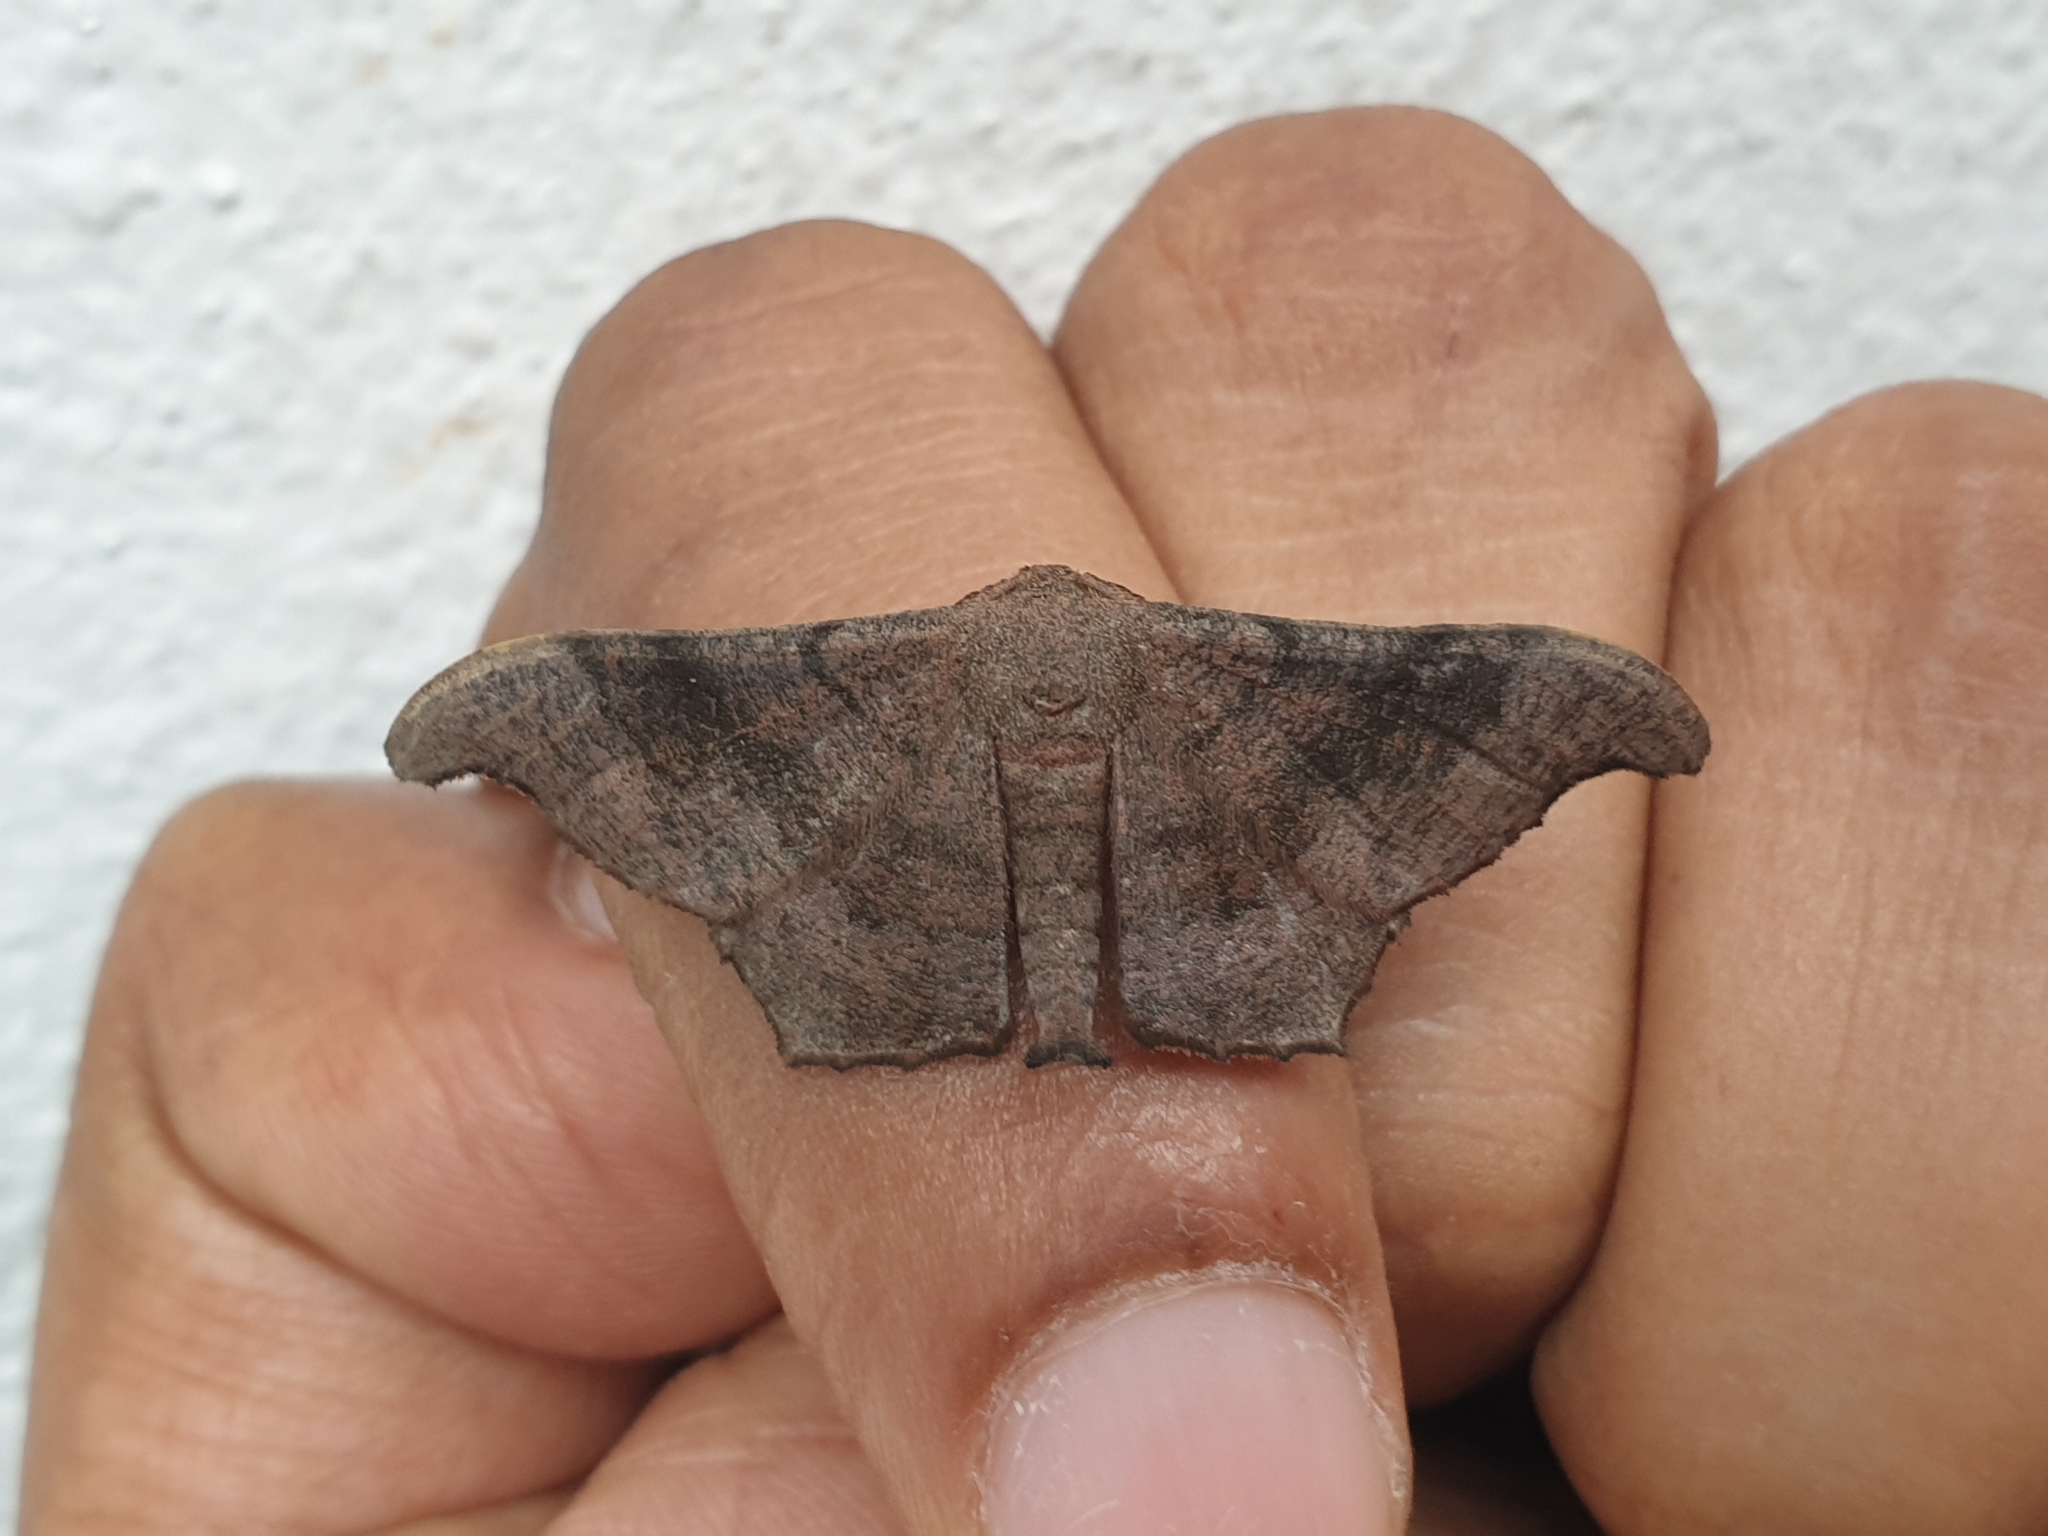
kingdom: Animalia
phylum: Arthropoda
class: Insecta
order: Lepidoptera
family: Geometridae
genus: Hyposidra
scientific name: Hyposidra talaca
